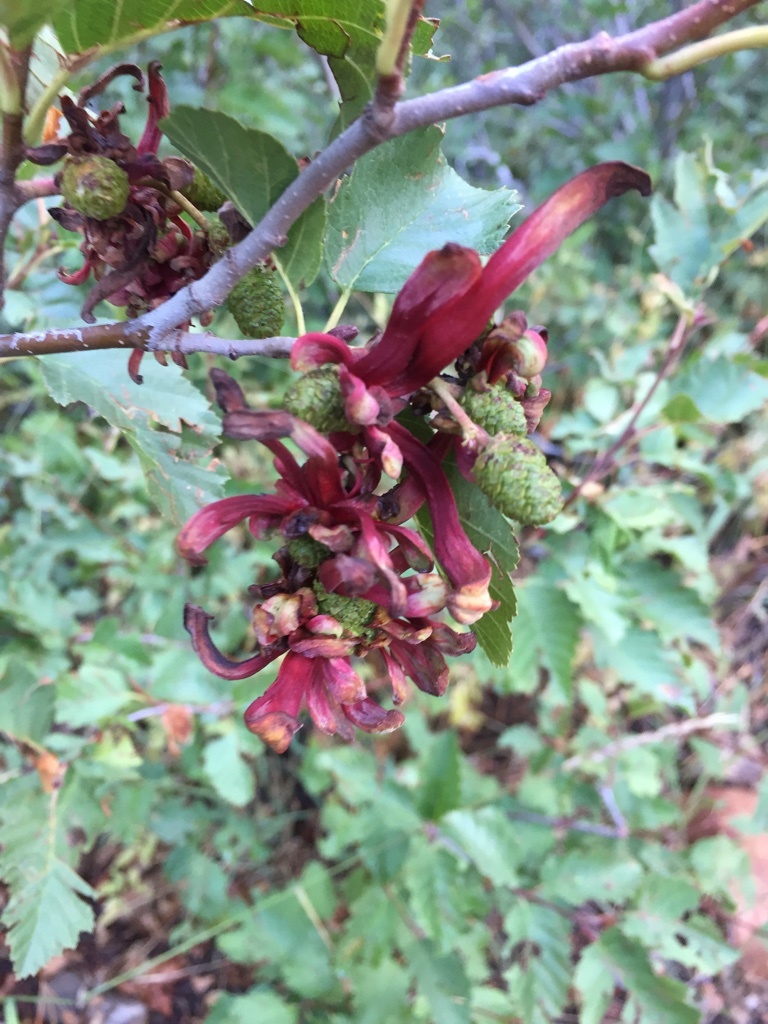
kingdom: Fungi
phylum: Ascomycota
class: Taphrinomycetes
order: Taphrinales
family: Taphrinaceae
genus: Taphrina
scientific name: Taphrina occidentalis
